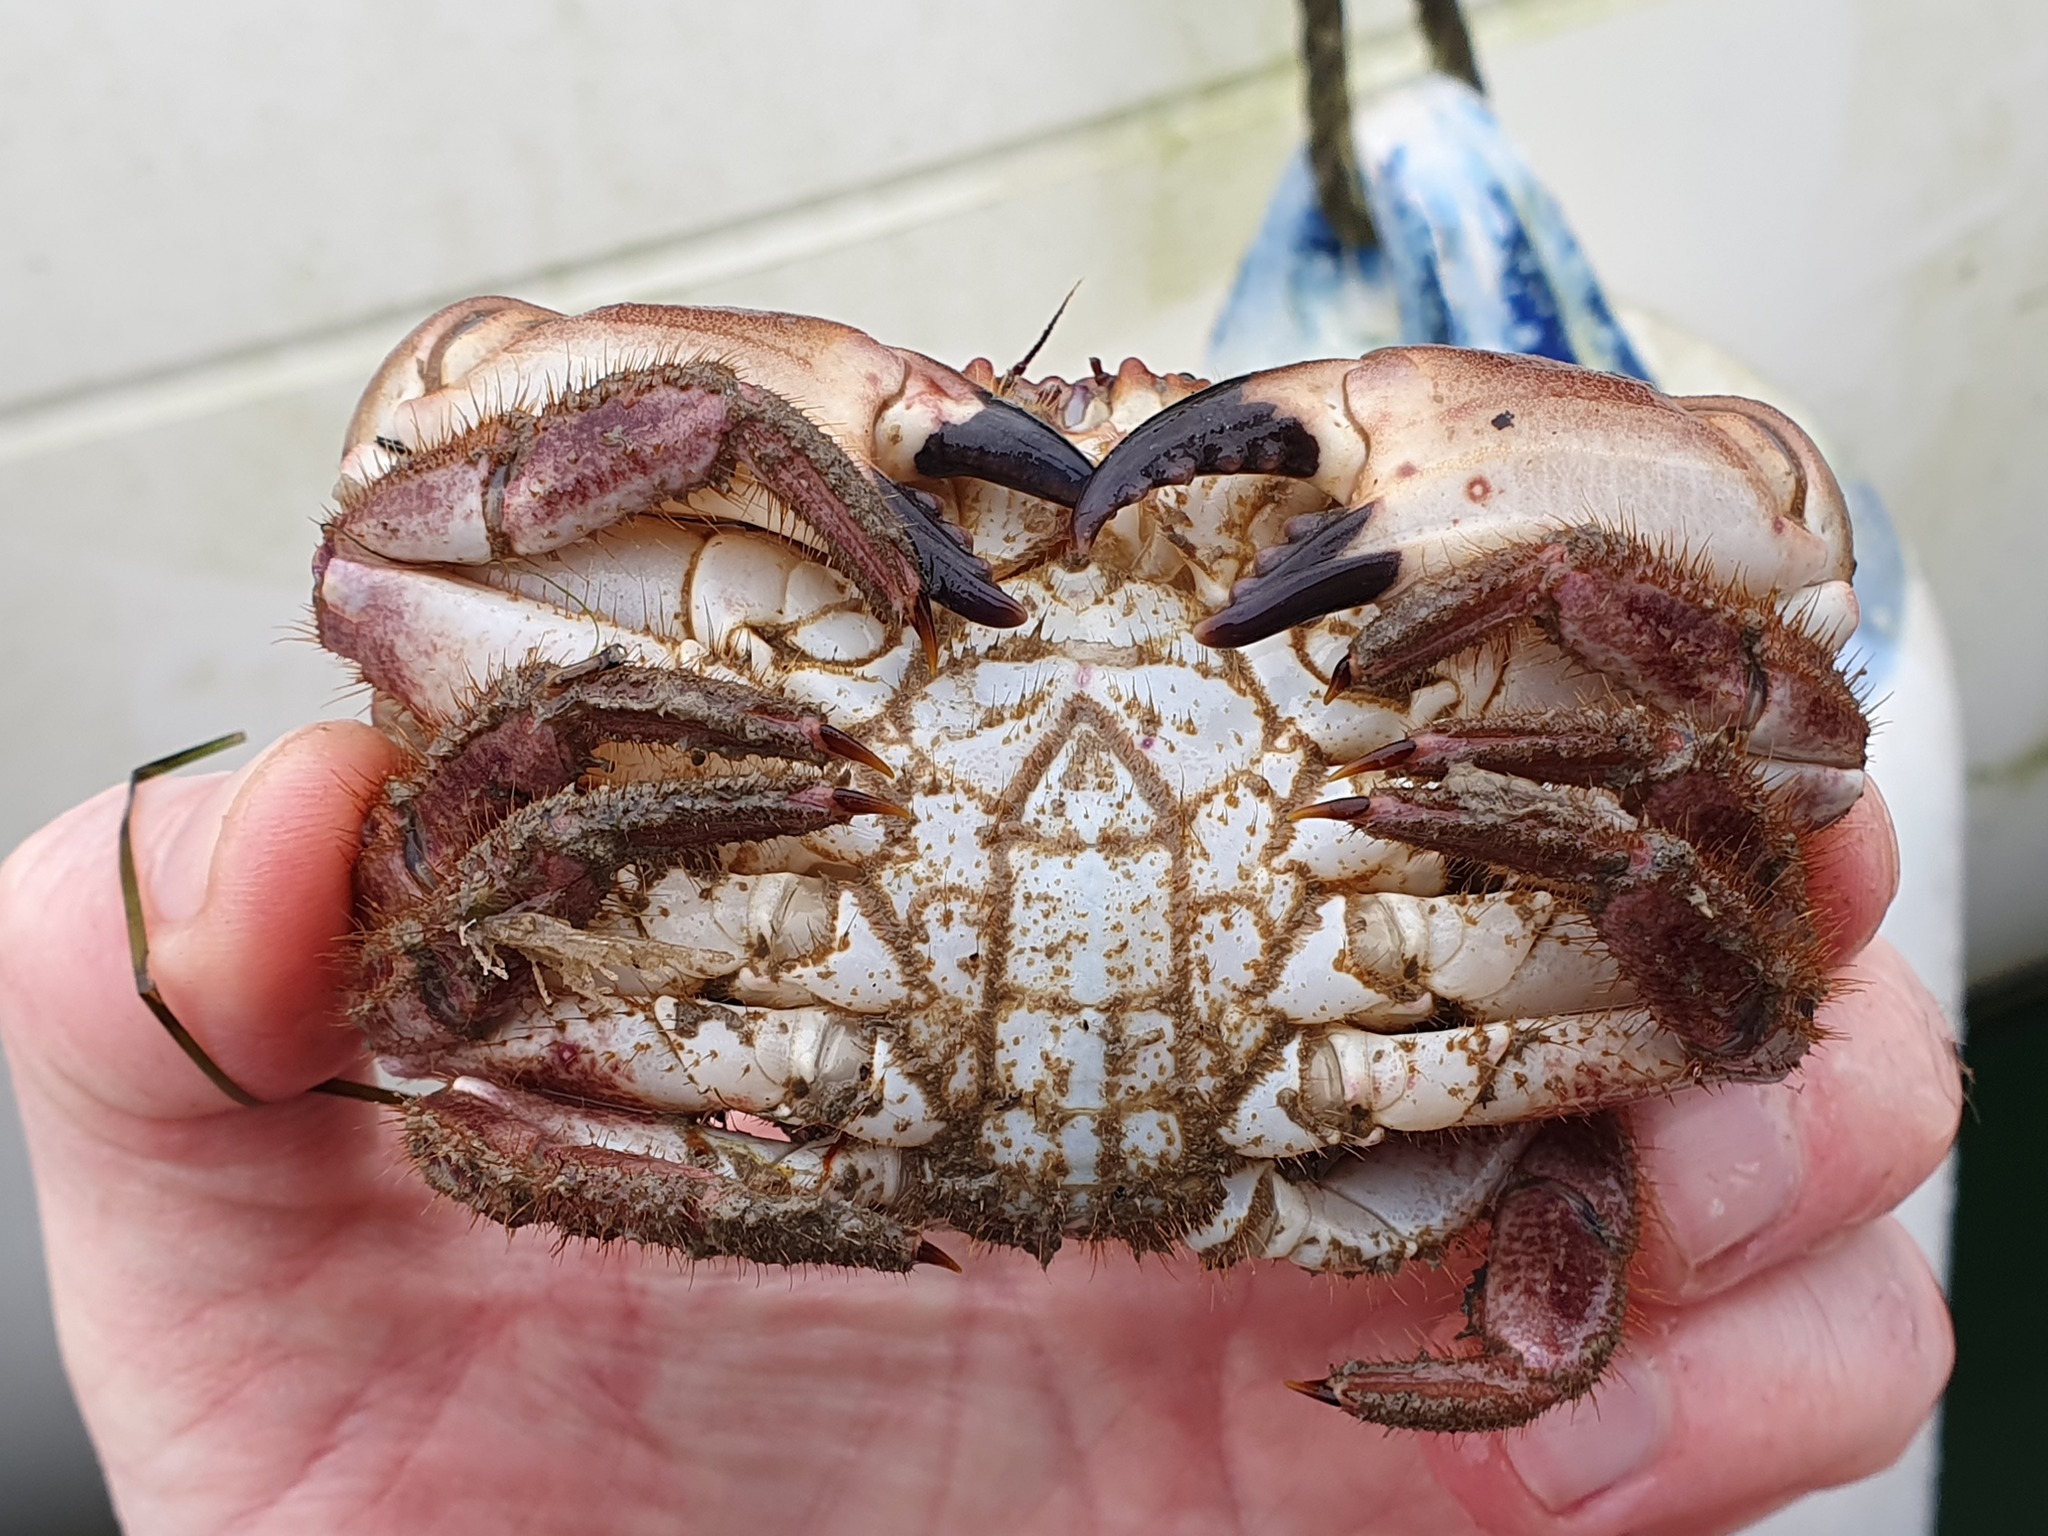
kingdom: Animalia
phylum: Arthropoda
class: Malacostraca
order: Decapoda
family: Cancridae
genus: Cancer
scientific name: Cancer pagurus
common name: Edible crab
